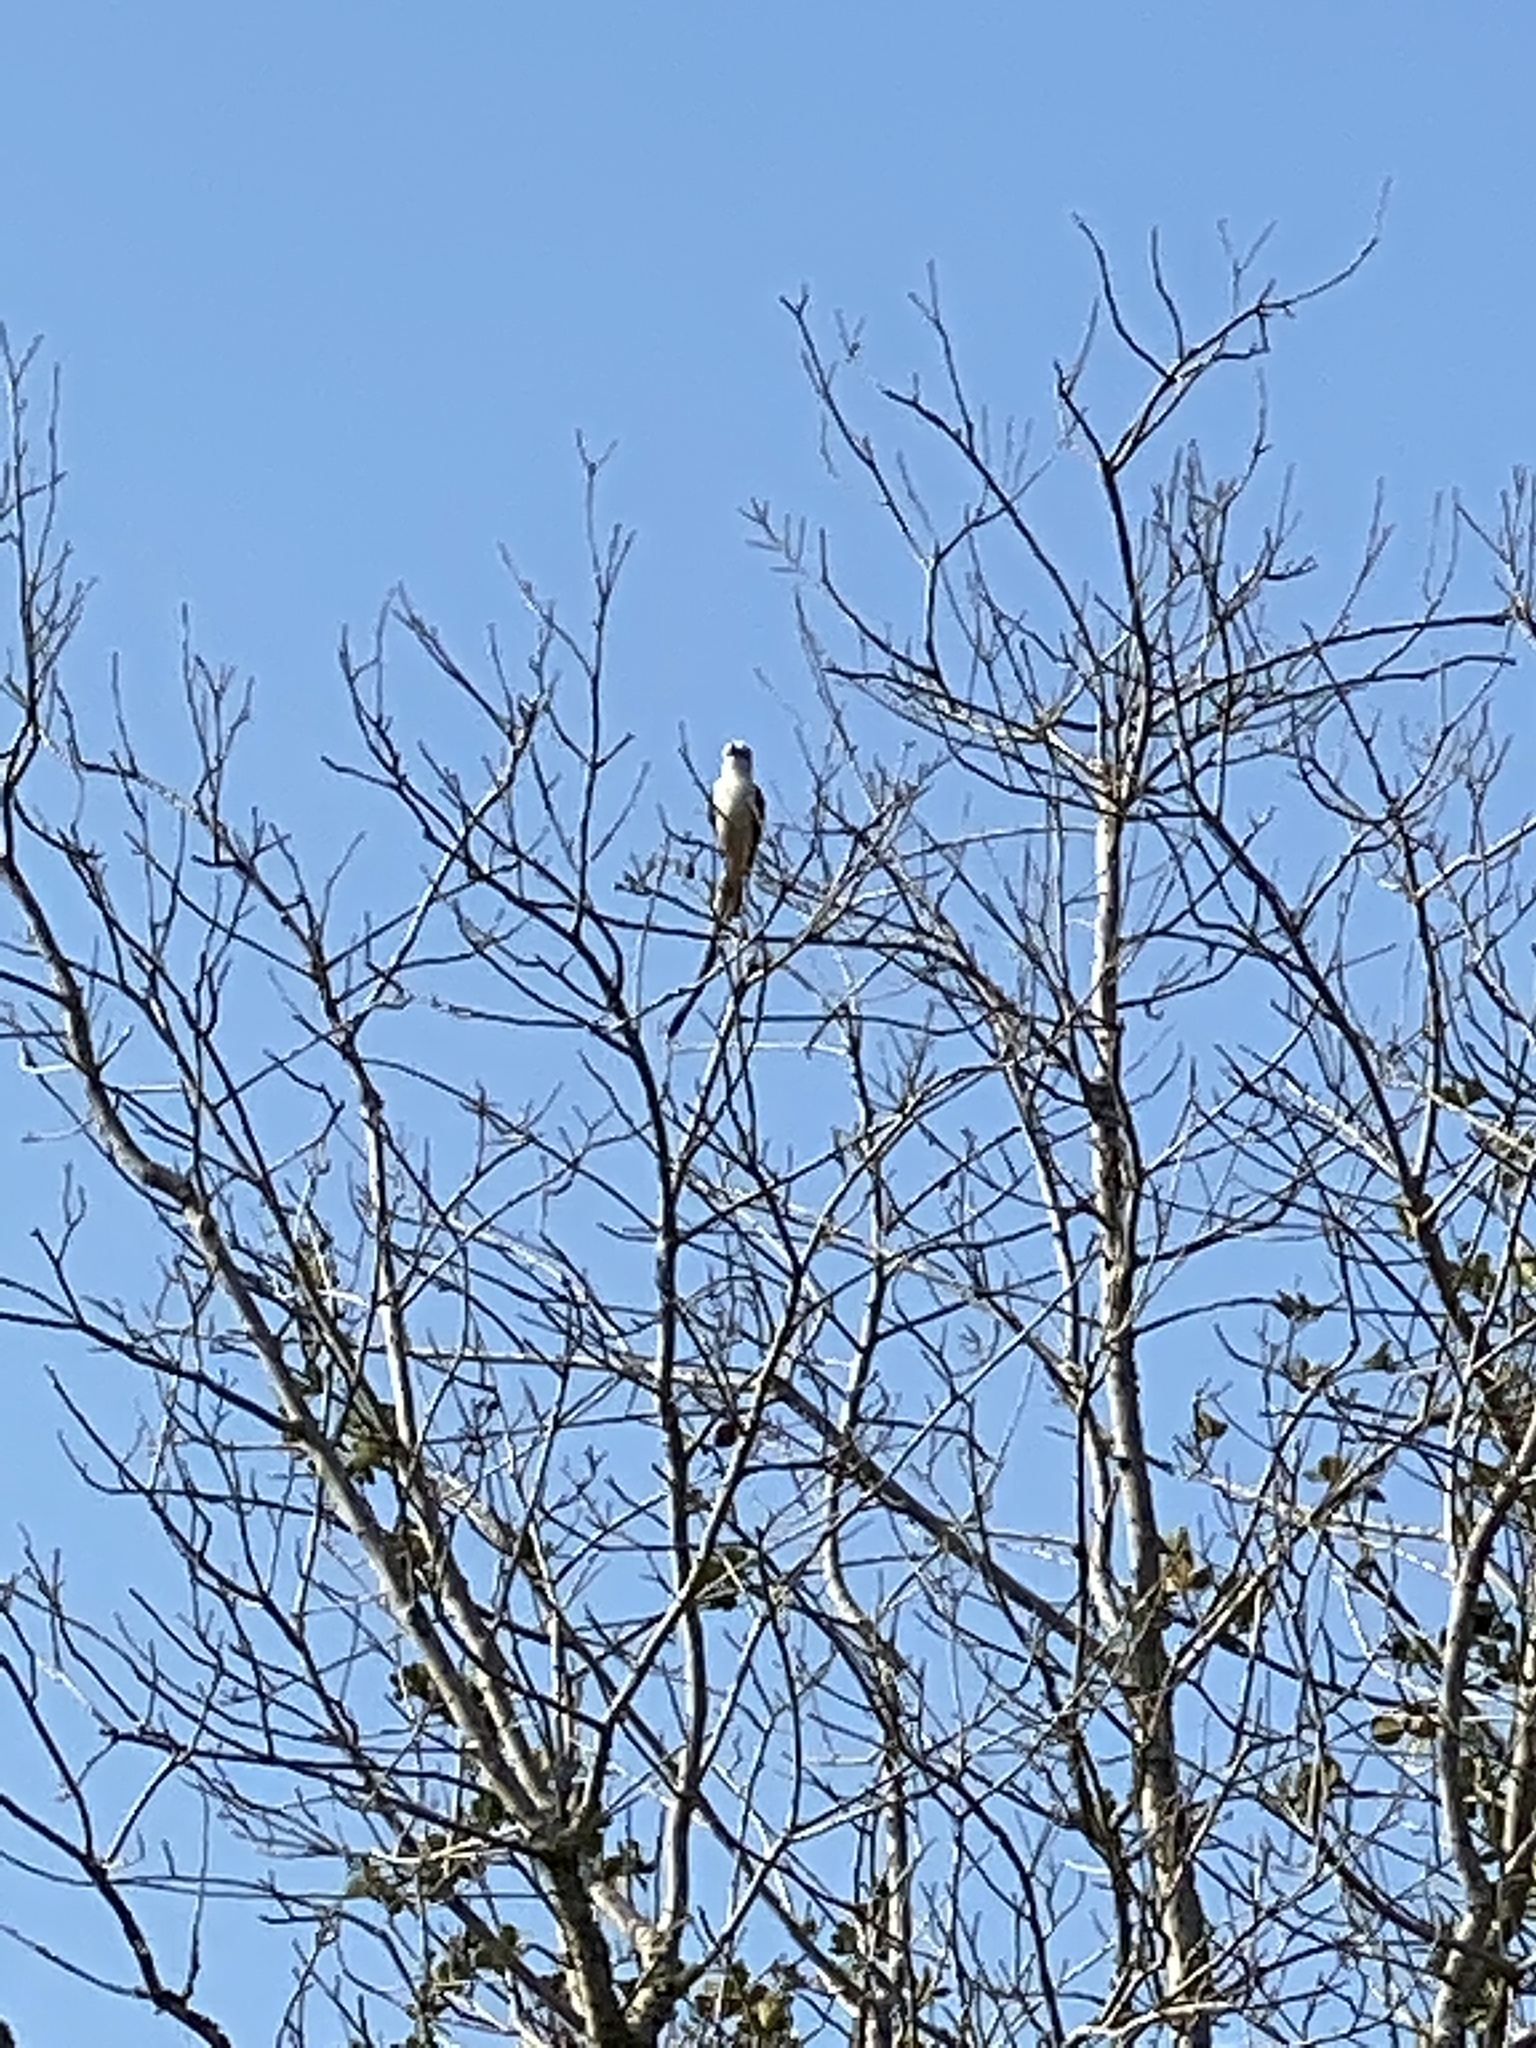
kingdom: Animalia
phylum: Chordata
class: Aves
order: Passeriformes
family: Tyrannidae
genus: Tyrannus
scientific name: Tyrannus forficatus
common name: Scissor-tailed flycatcher
